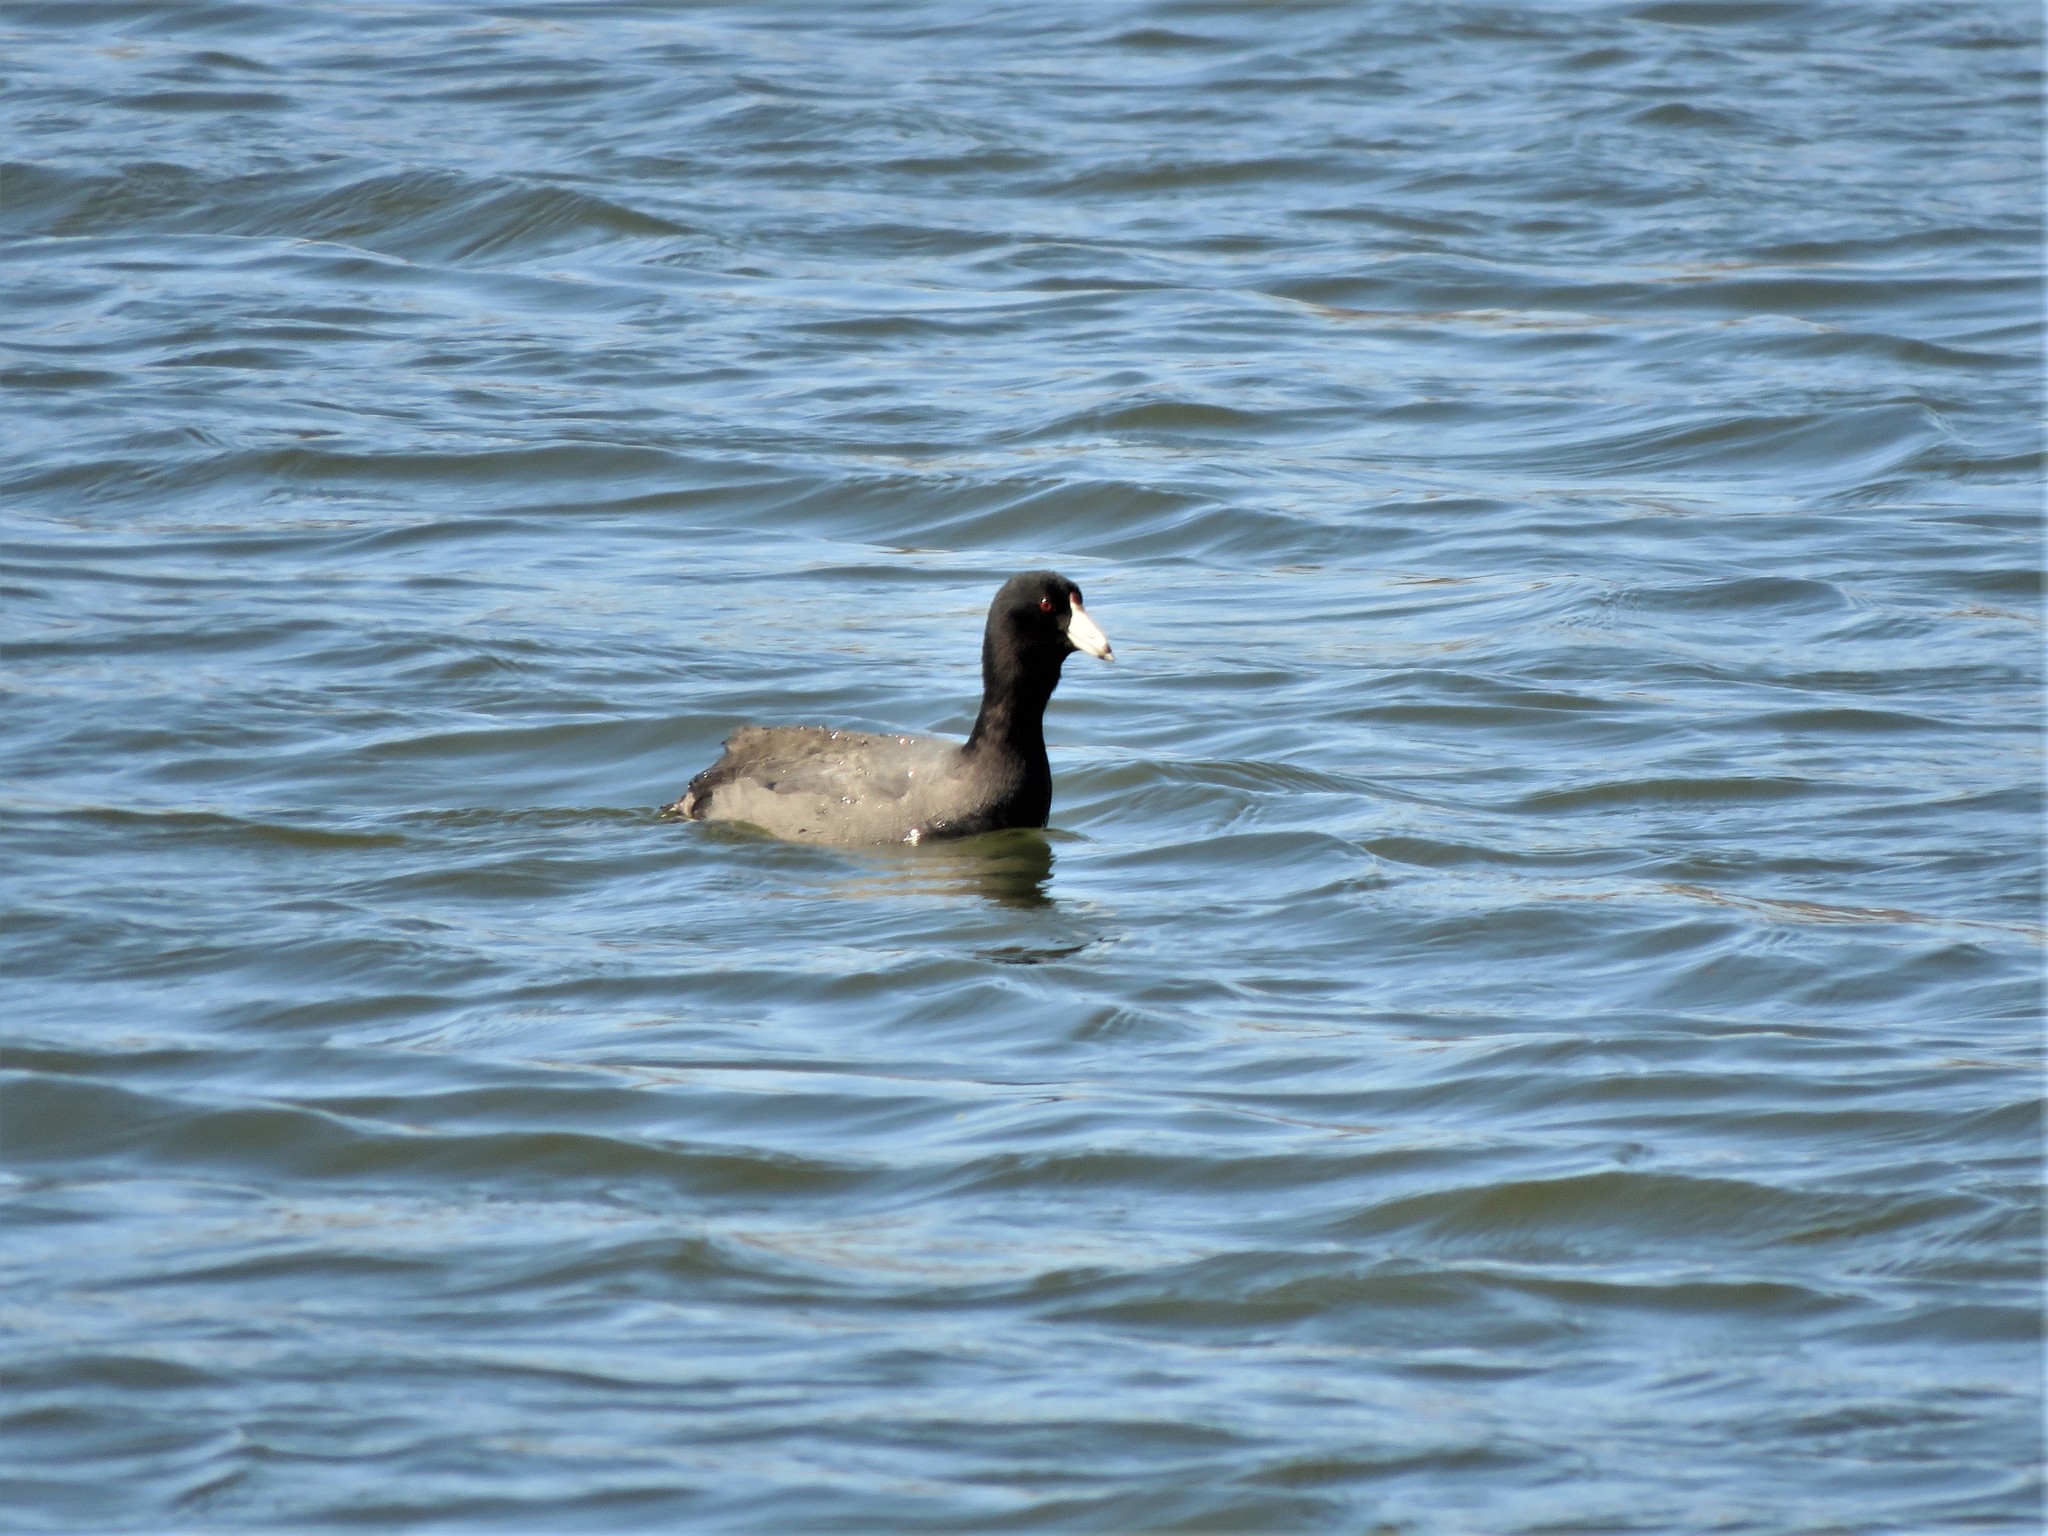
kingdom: Animalia
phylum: Chordata
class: Aves
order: Gruiformes
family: Rallidae
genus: Fulica
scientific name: Fulica americana
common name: American coot
